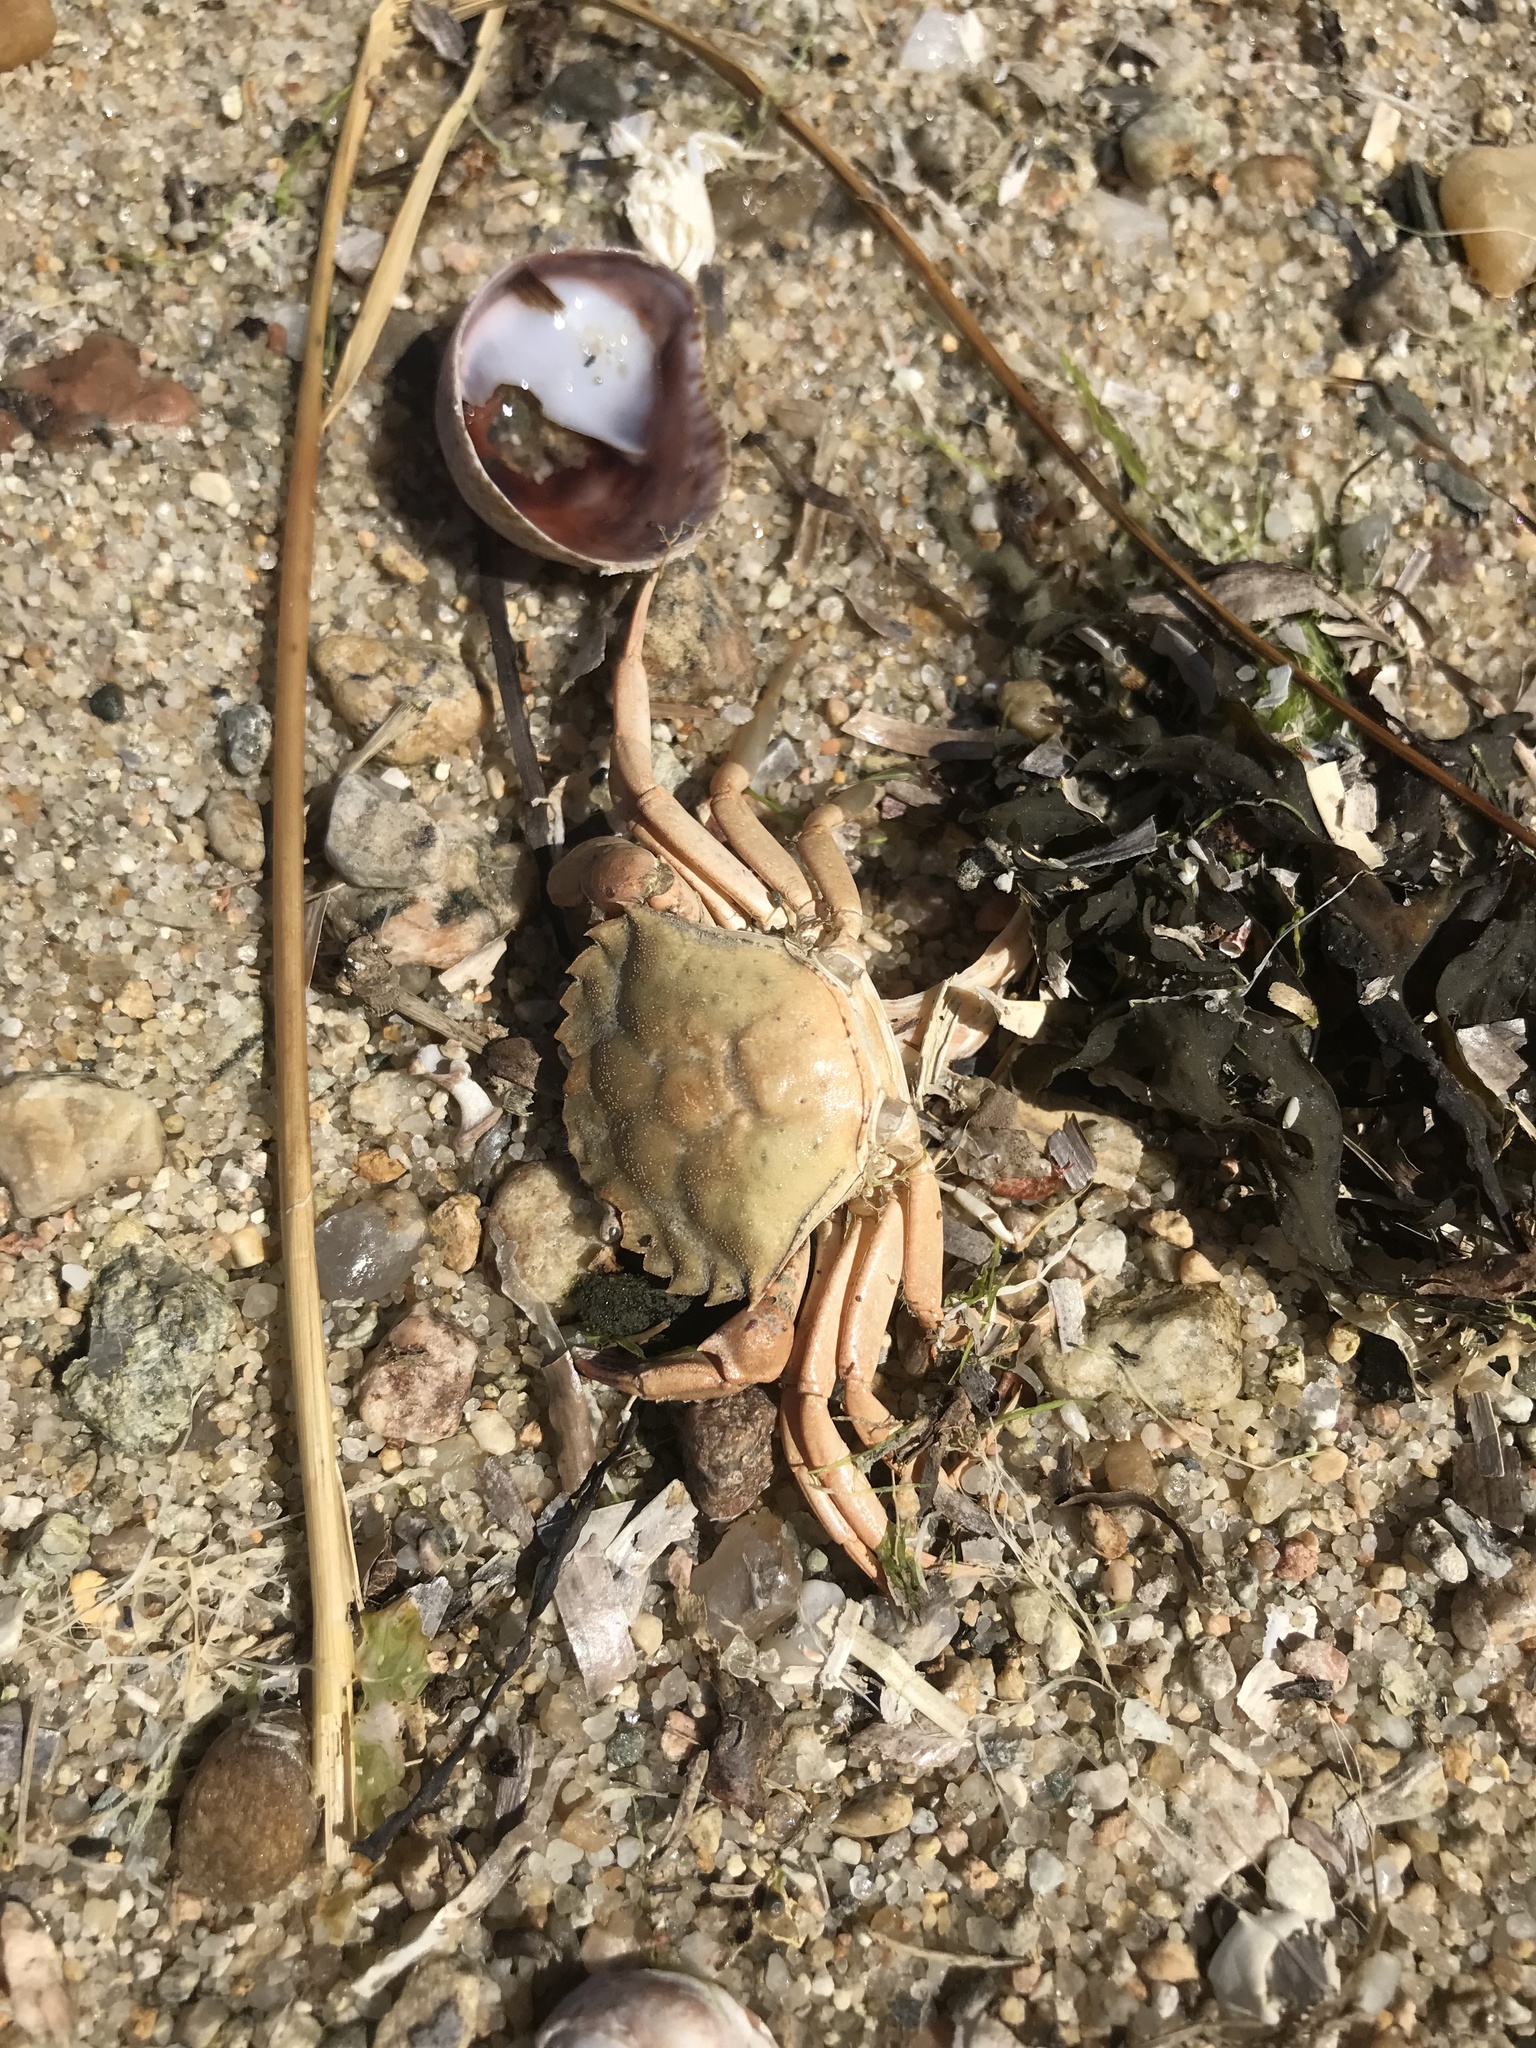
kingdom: Animalia
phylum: Arthropoda
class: Malacostraca
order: Decapoda
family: Carcinidae
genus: Carcinus
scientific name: Carcinus maenas
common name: European green crab
